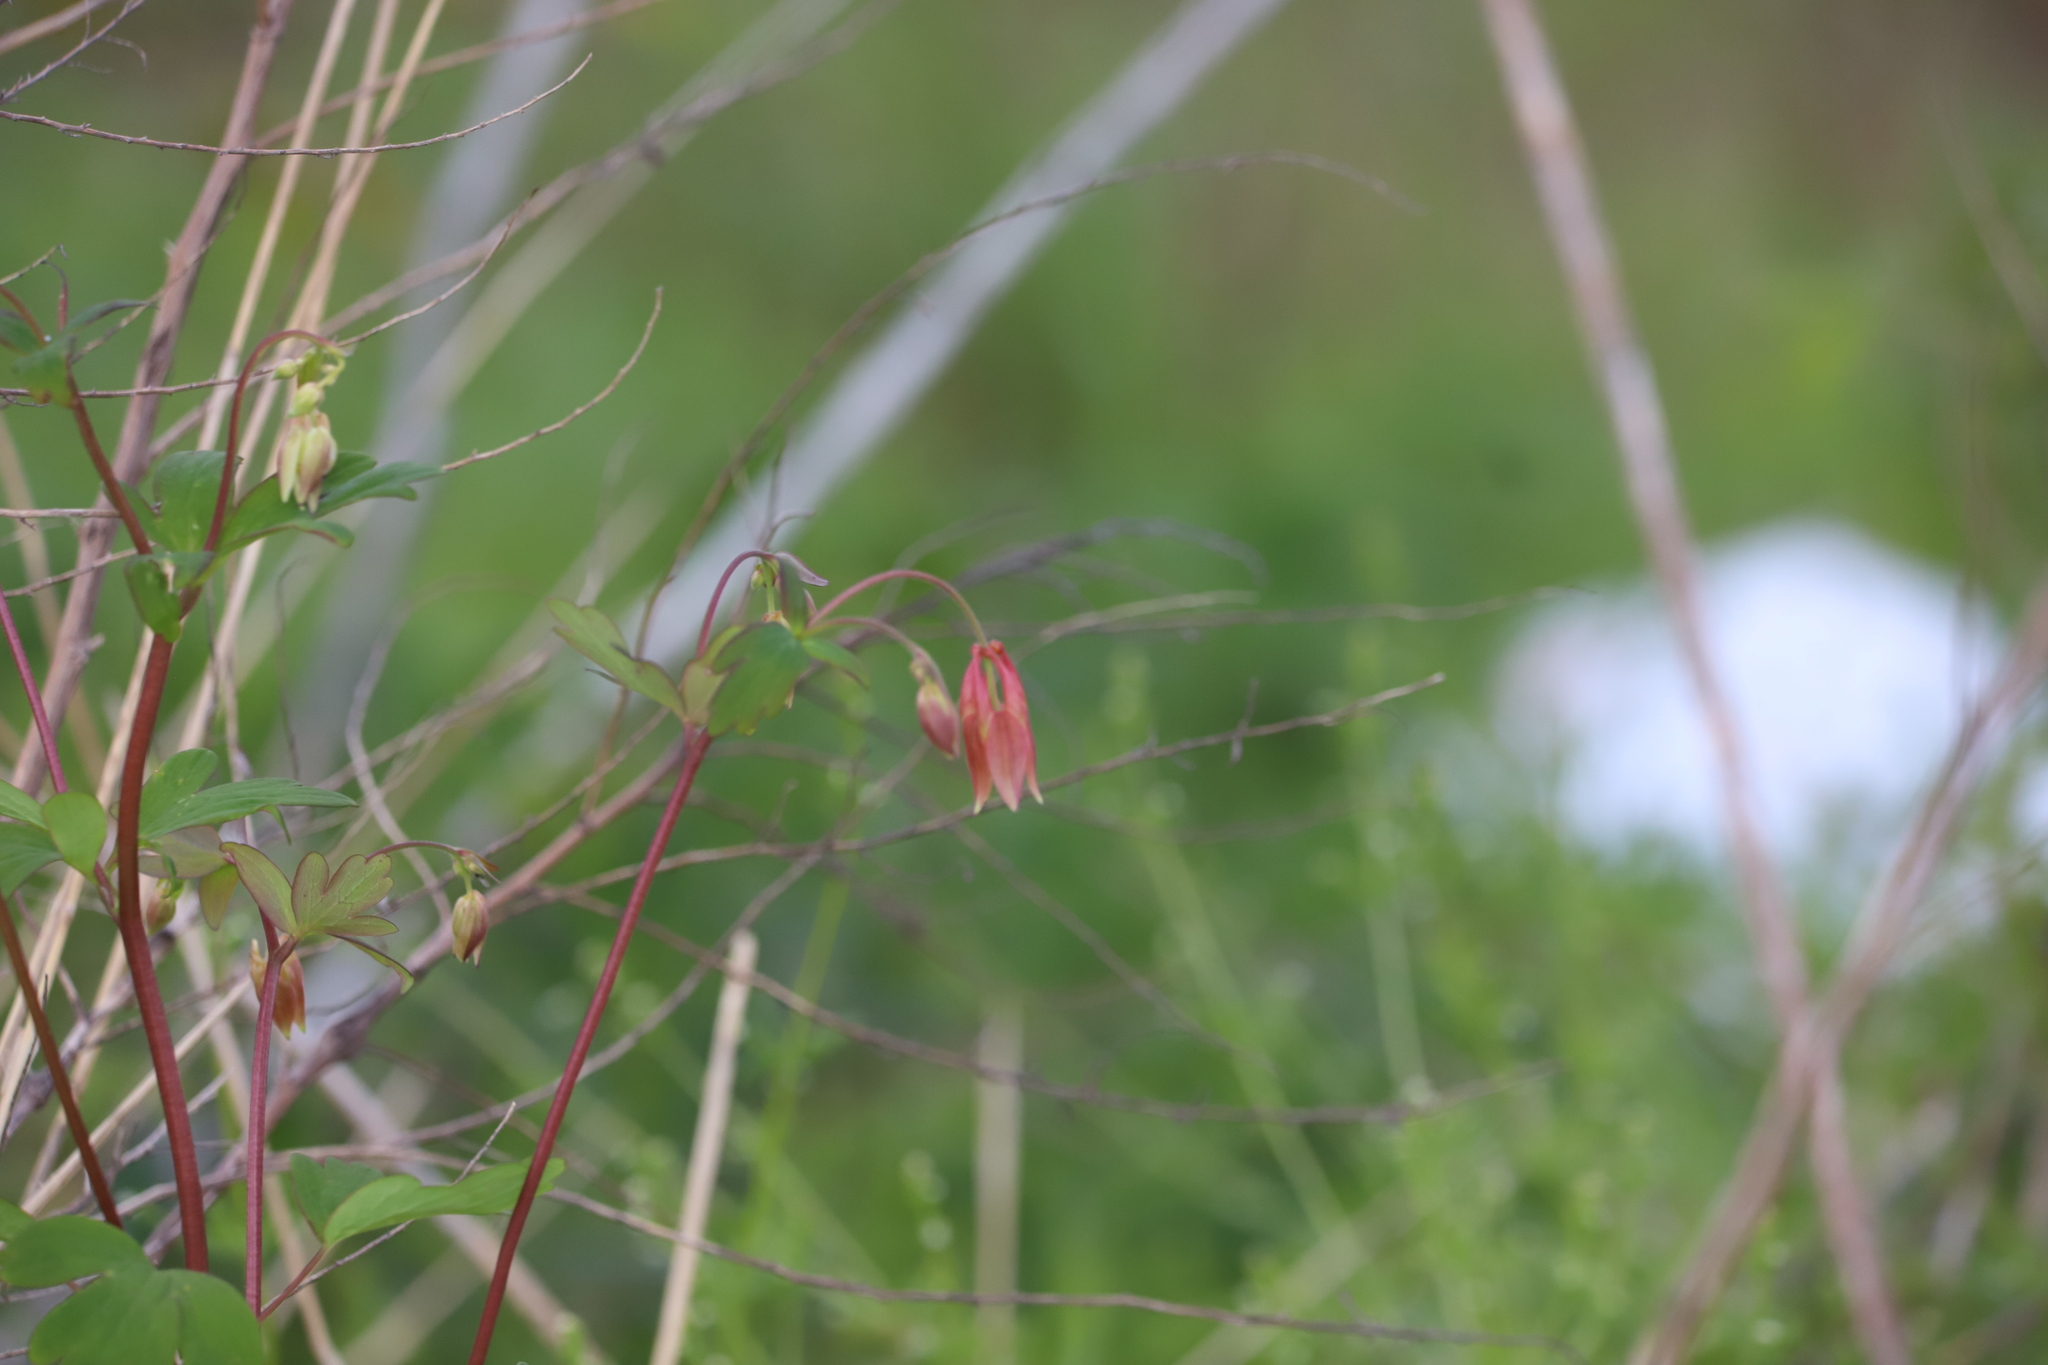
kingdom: Plantae
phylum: Tracheophyta
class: Magnoliopsida
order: Ranunculales
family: Ranunculaceae
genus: Aquilegia
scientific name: Aquilegia canadensis
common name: American columbine
